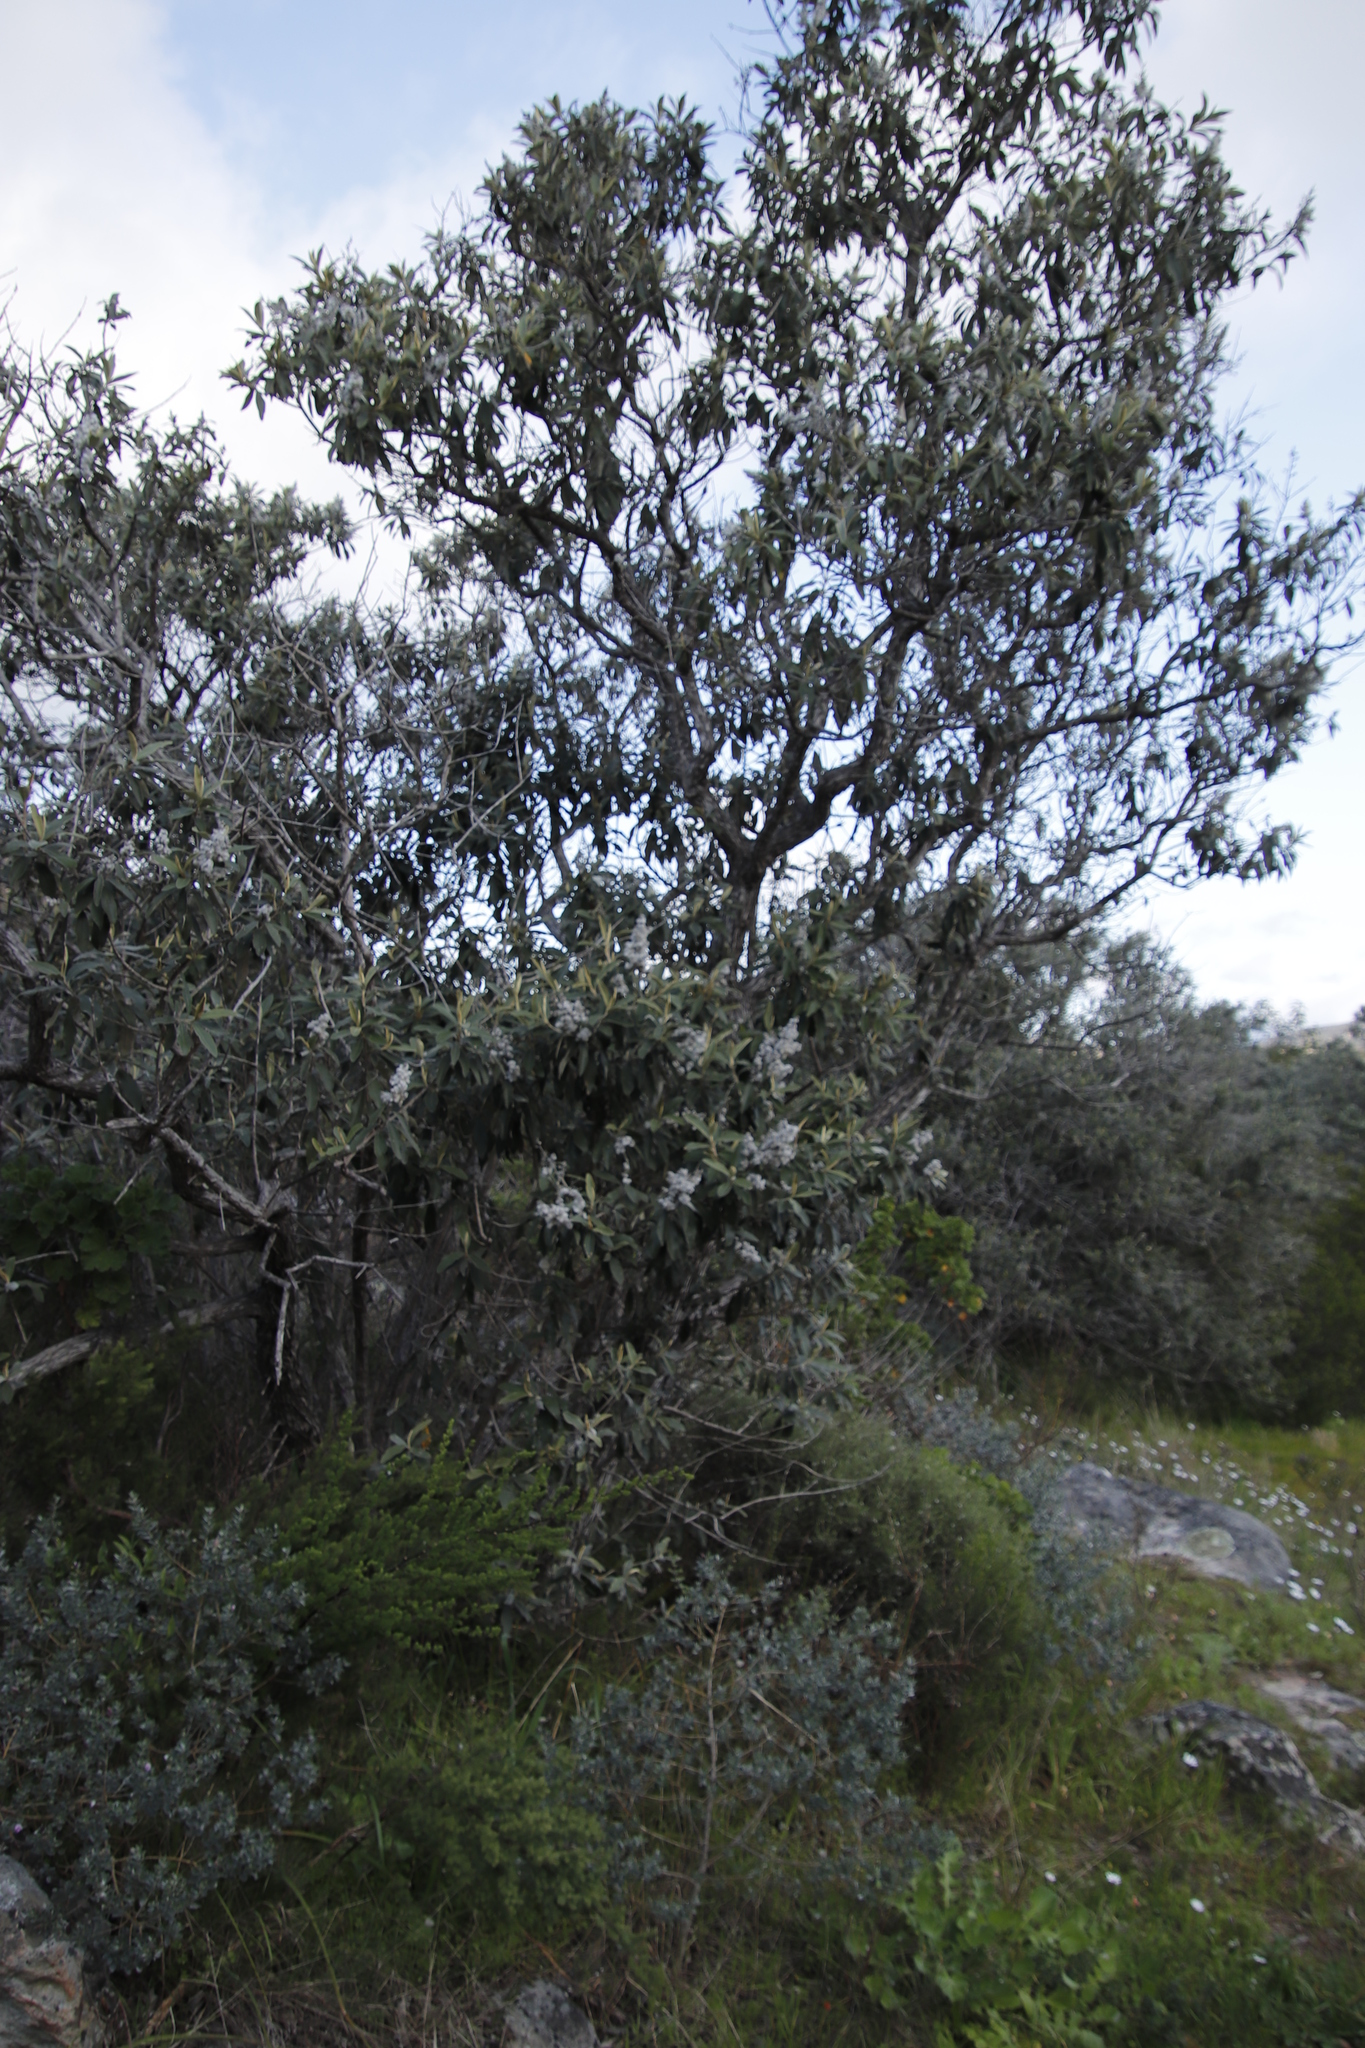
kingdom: Plantae
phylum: Tracheophyta
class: Magnoliopsida
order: Asterales
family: Asteraceae
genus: Tarchonanthus
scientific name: Tarchonanthus littoralis
